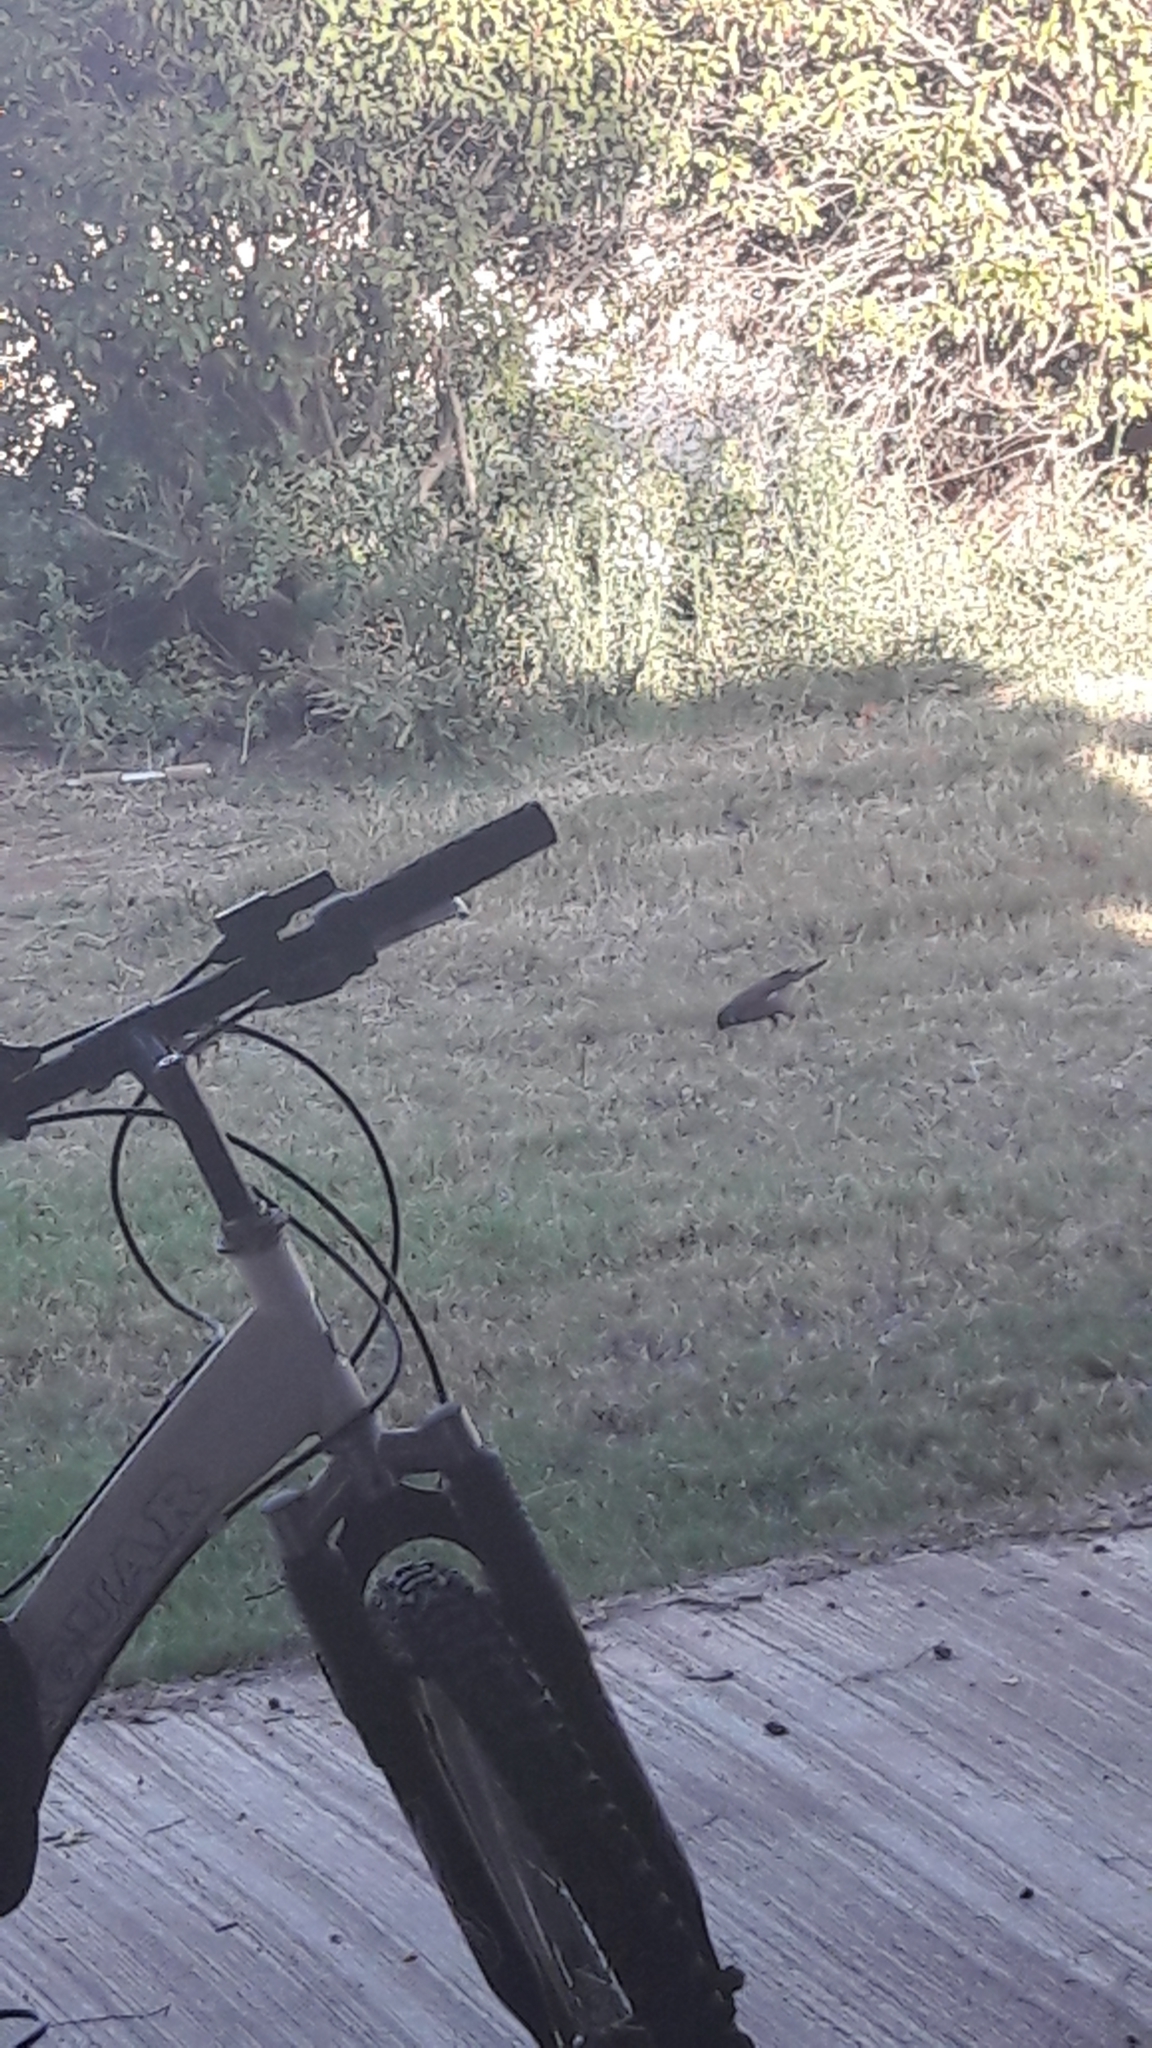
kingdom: Animalia
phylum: Chordata
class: Aves
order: Passeriformes
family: Sturnidae
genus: Acridotheres
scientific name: Acridotheres tristis
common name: Common myna
